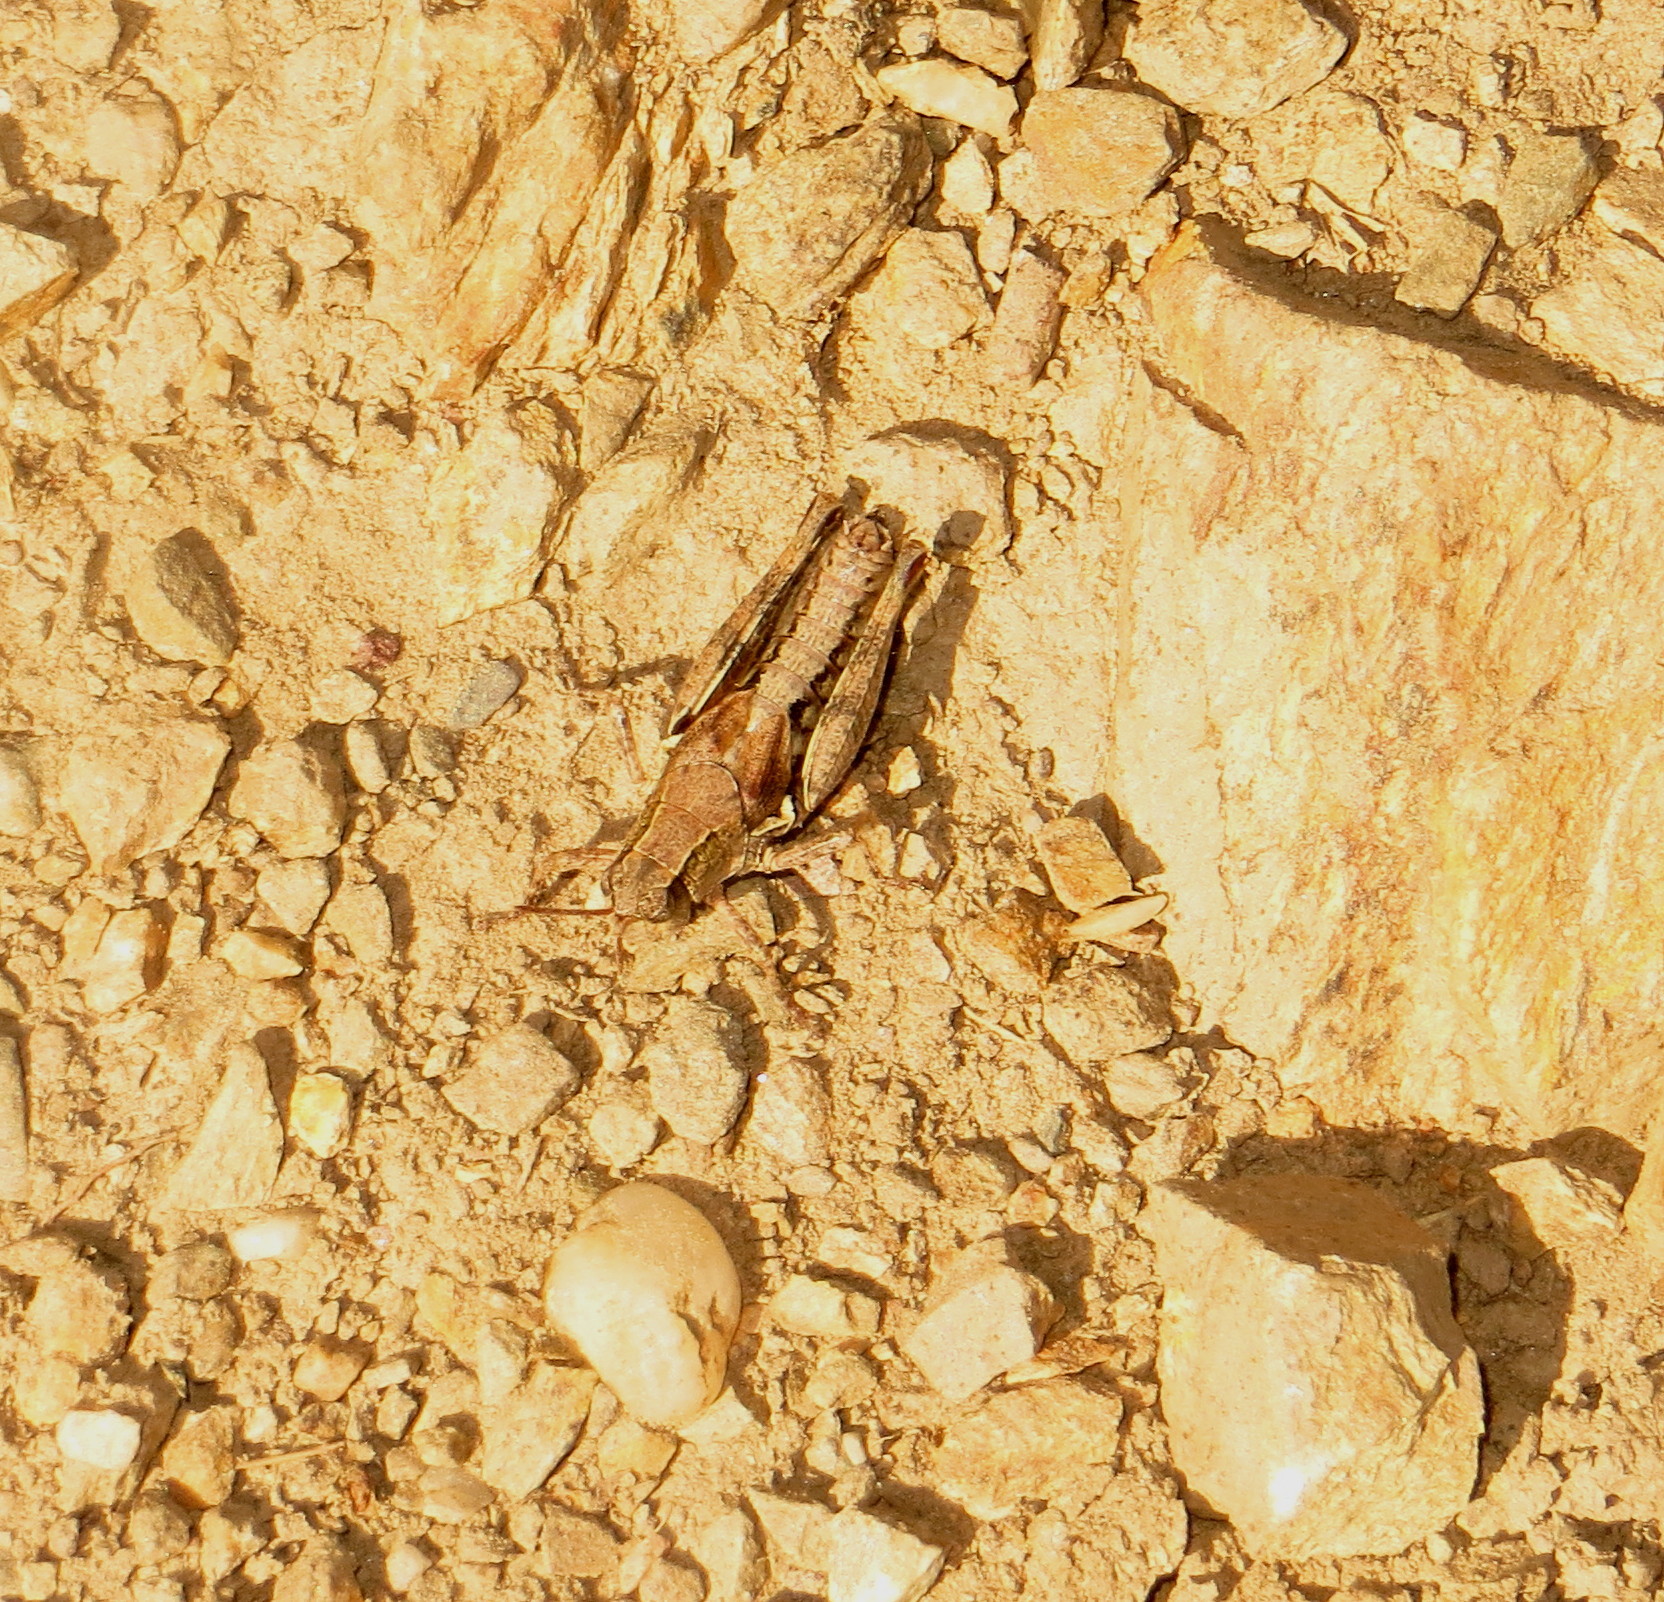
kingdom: Animalia
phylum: Arthropoda
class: Insecta
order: Orthoptera
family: Acrididae
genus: Phaulacridium
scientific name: Phaulacridium marginale
